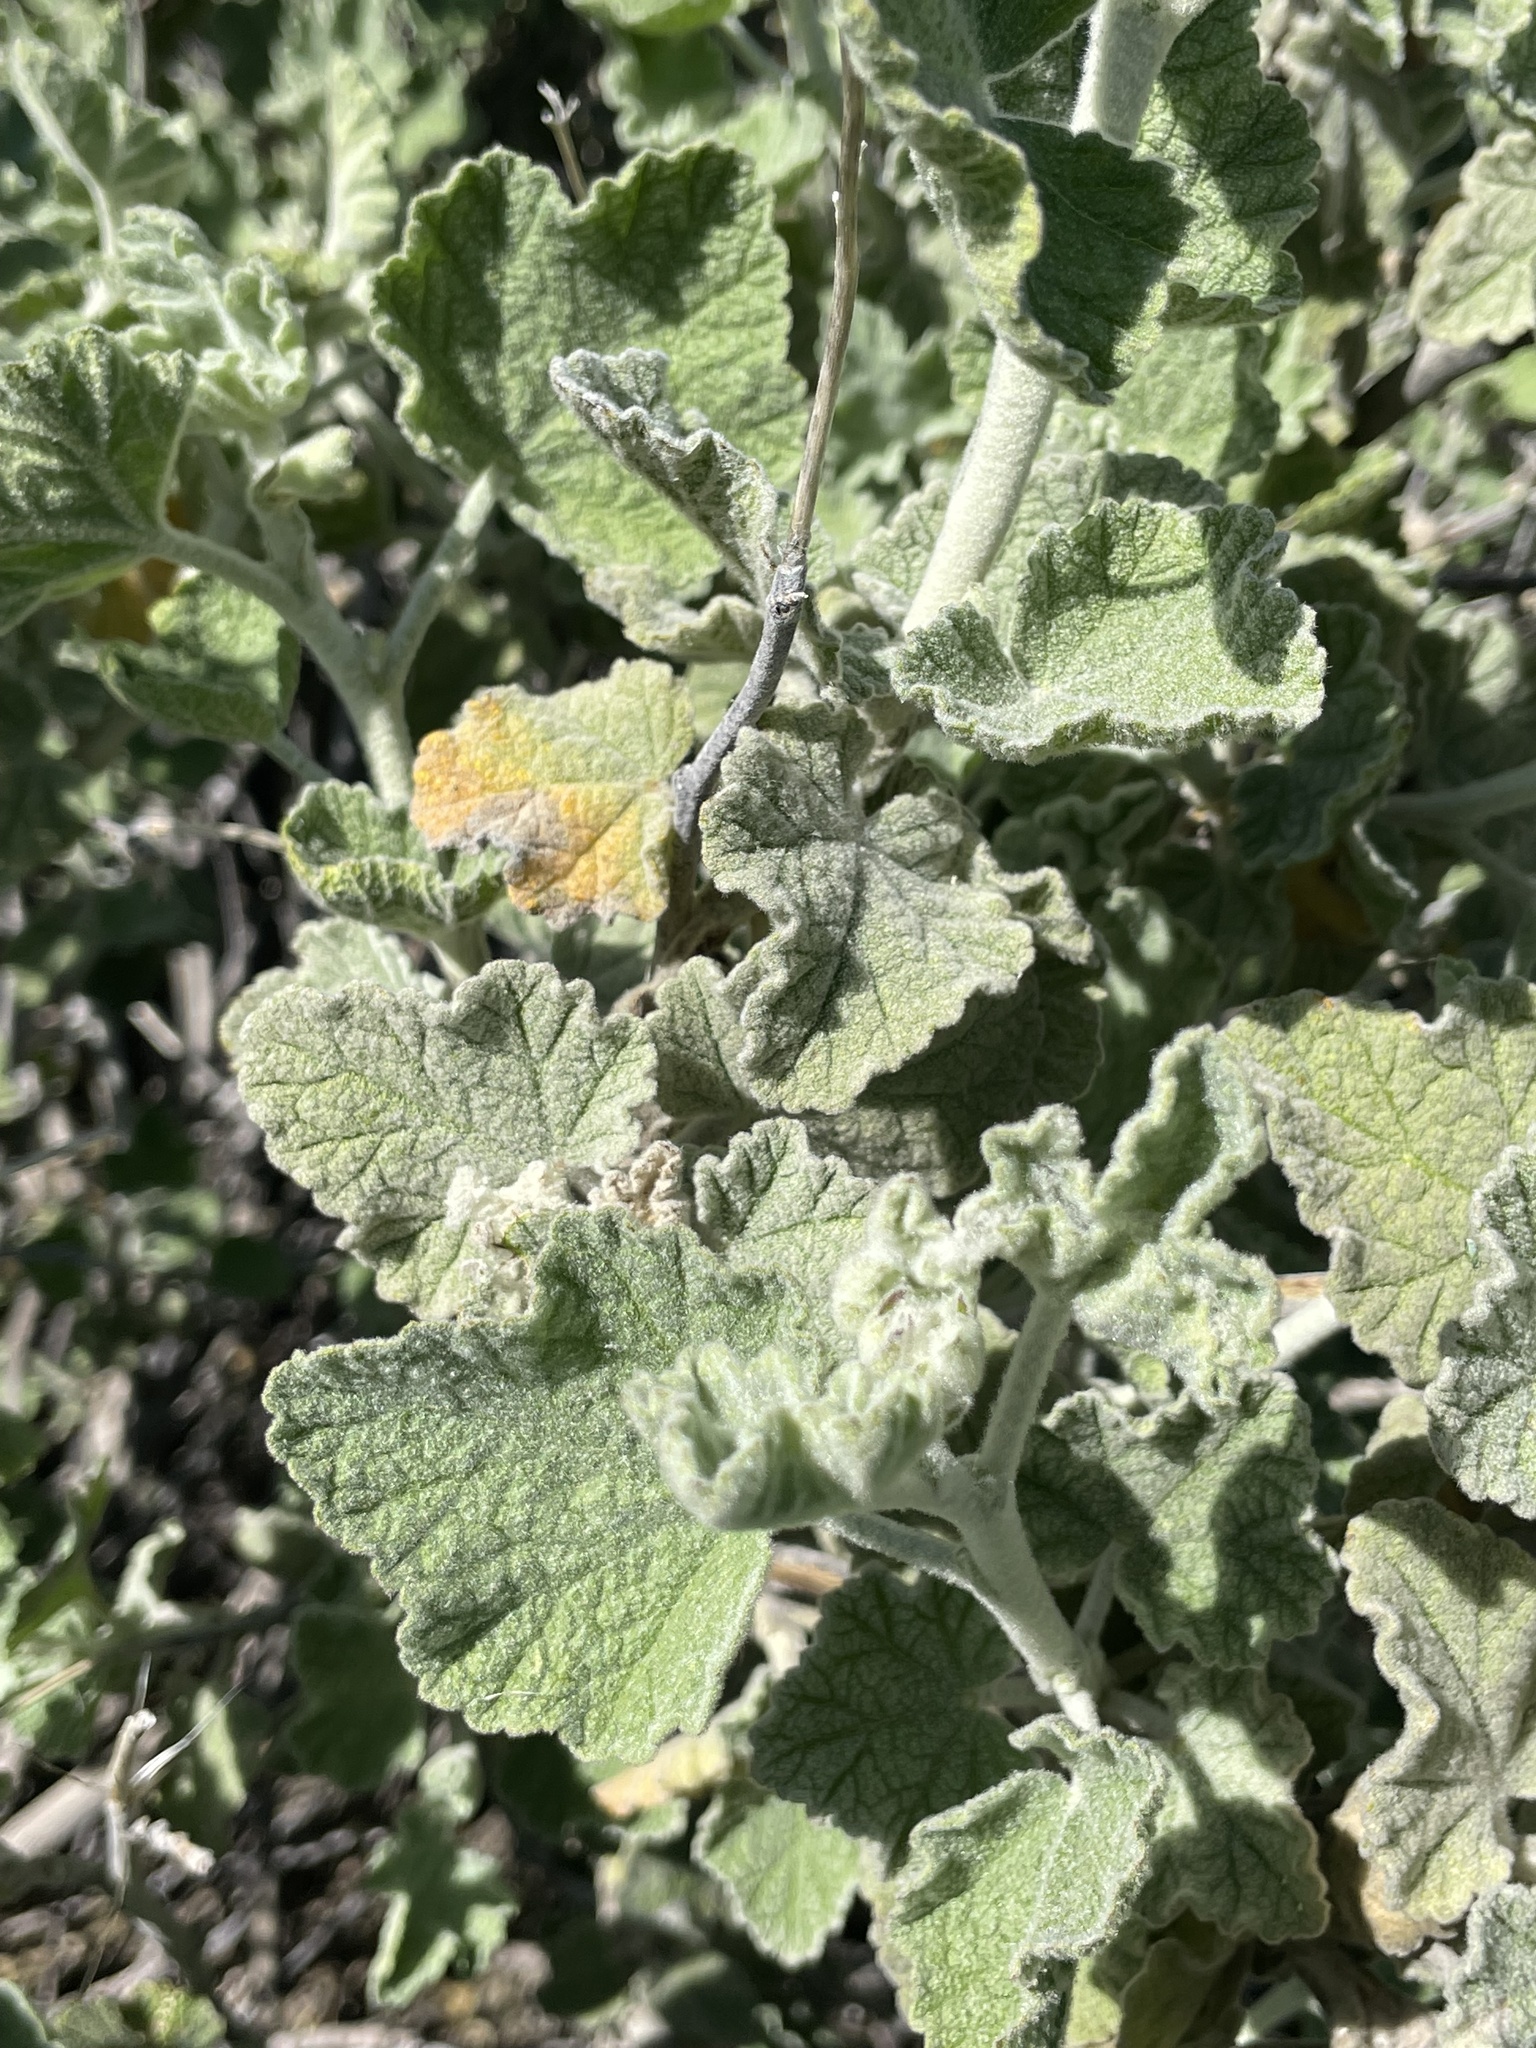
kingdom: Plantae
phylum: Tracheophyta
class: Magnoliopsida
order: Malvales
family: Malvaceae
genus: Malacothamnus
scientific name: Malacothamnus fremontii
